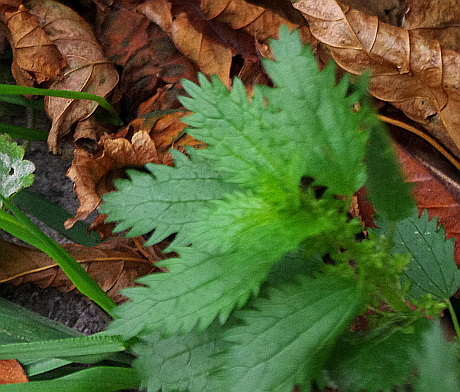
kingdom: Plantae
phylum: Tracheophyta
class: Magnoliopsida
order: Rosales
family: Urticaceae
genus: Urtica
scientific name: Urtica urens
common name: Dwarf nettle
